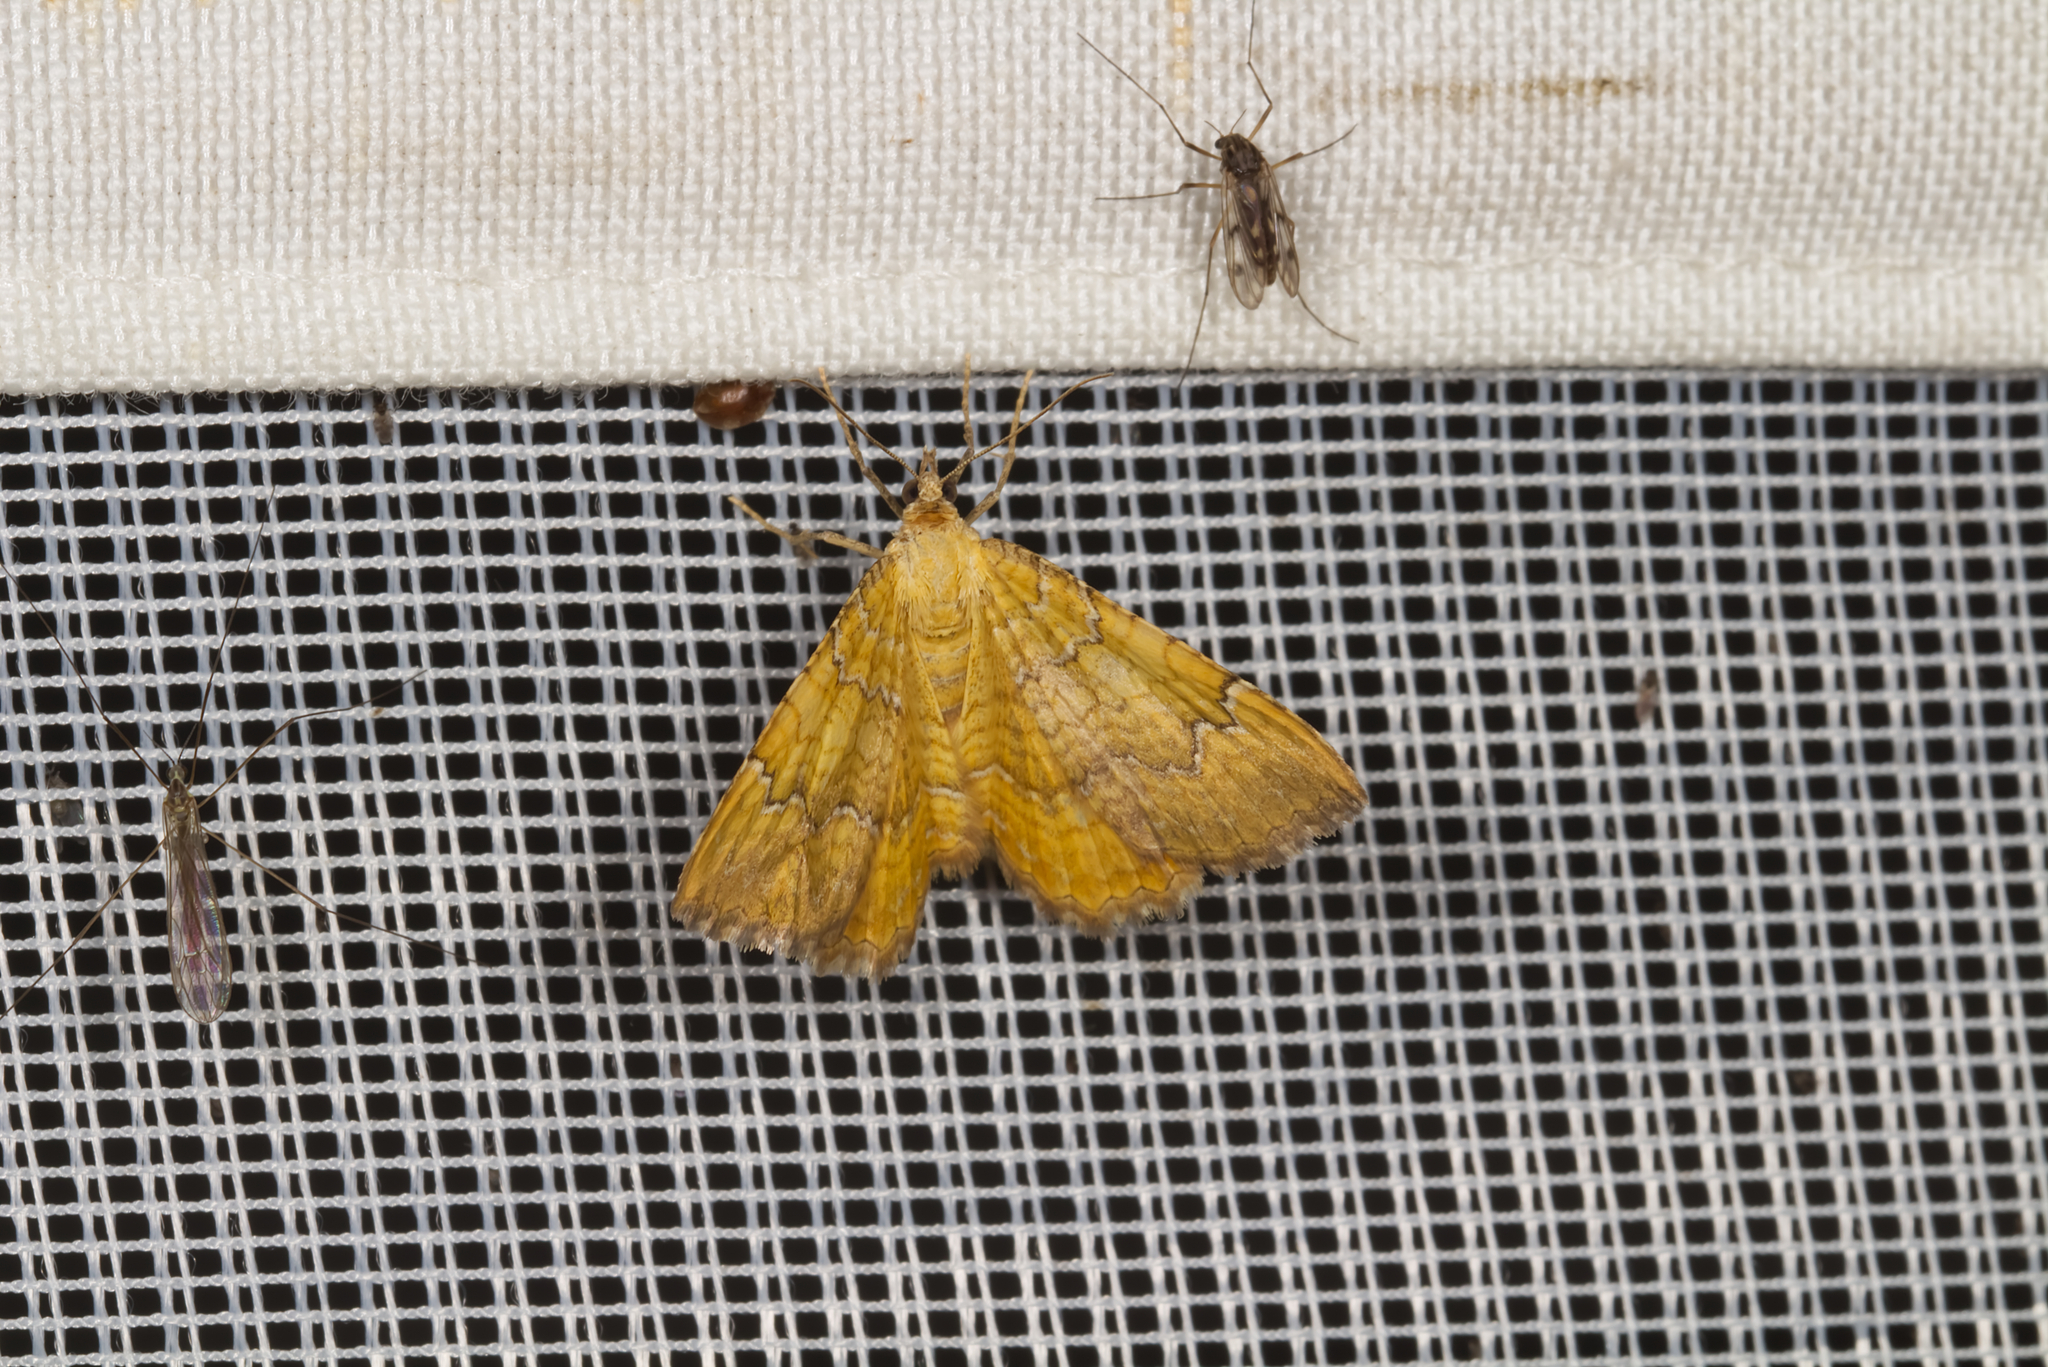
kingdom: Animalia
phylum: Arthropoda
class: Insecta
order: Lepidoptera
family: Geometridae
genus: Camptogramma
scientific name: Camptogramma bilineata
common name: Yellow shell
